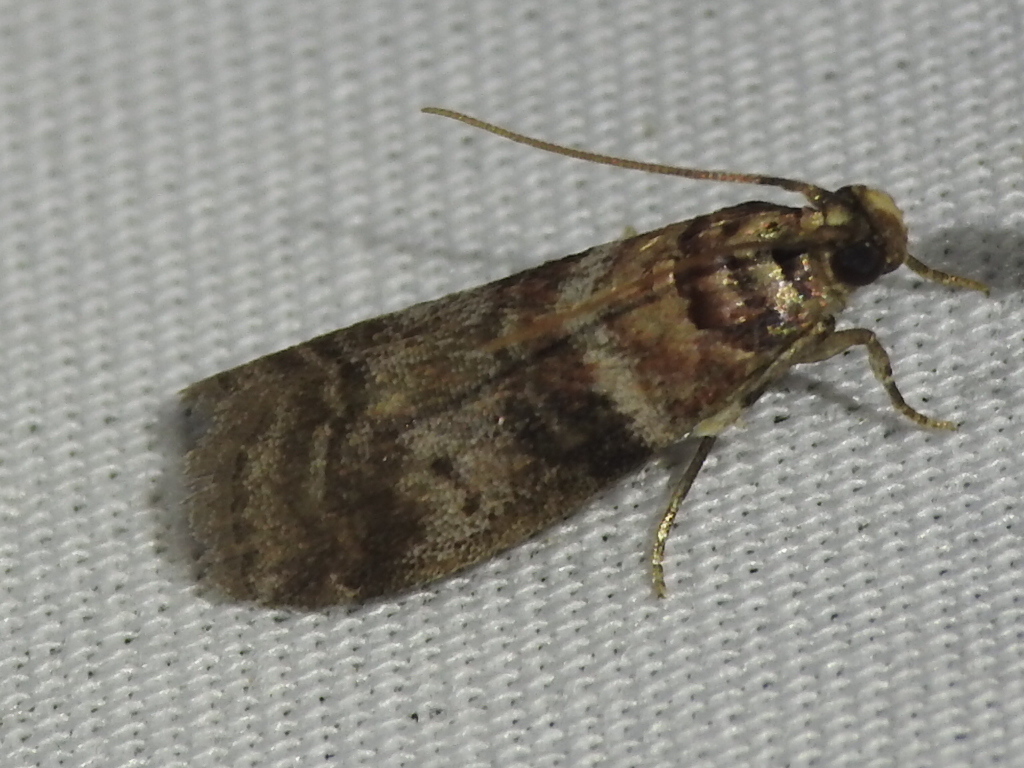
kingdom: Animalia
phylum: Arthropoda
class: Insecta
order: Lepidoptera
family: Pyralidae
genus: Sciota
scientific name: Sciota uvinella
